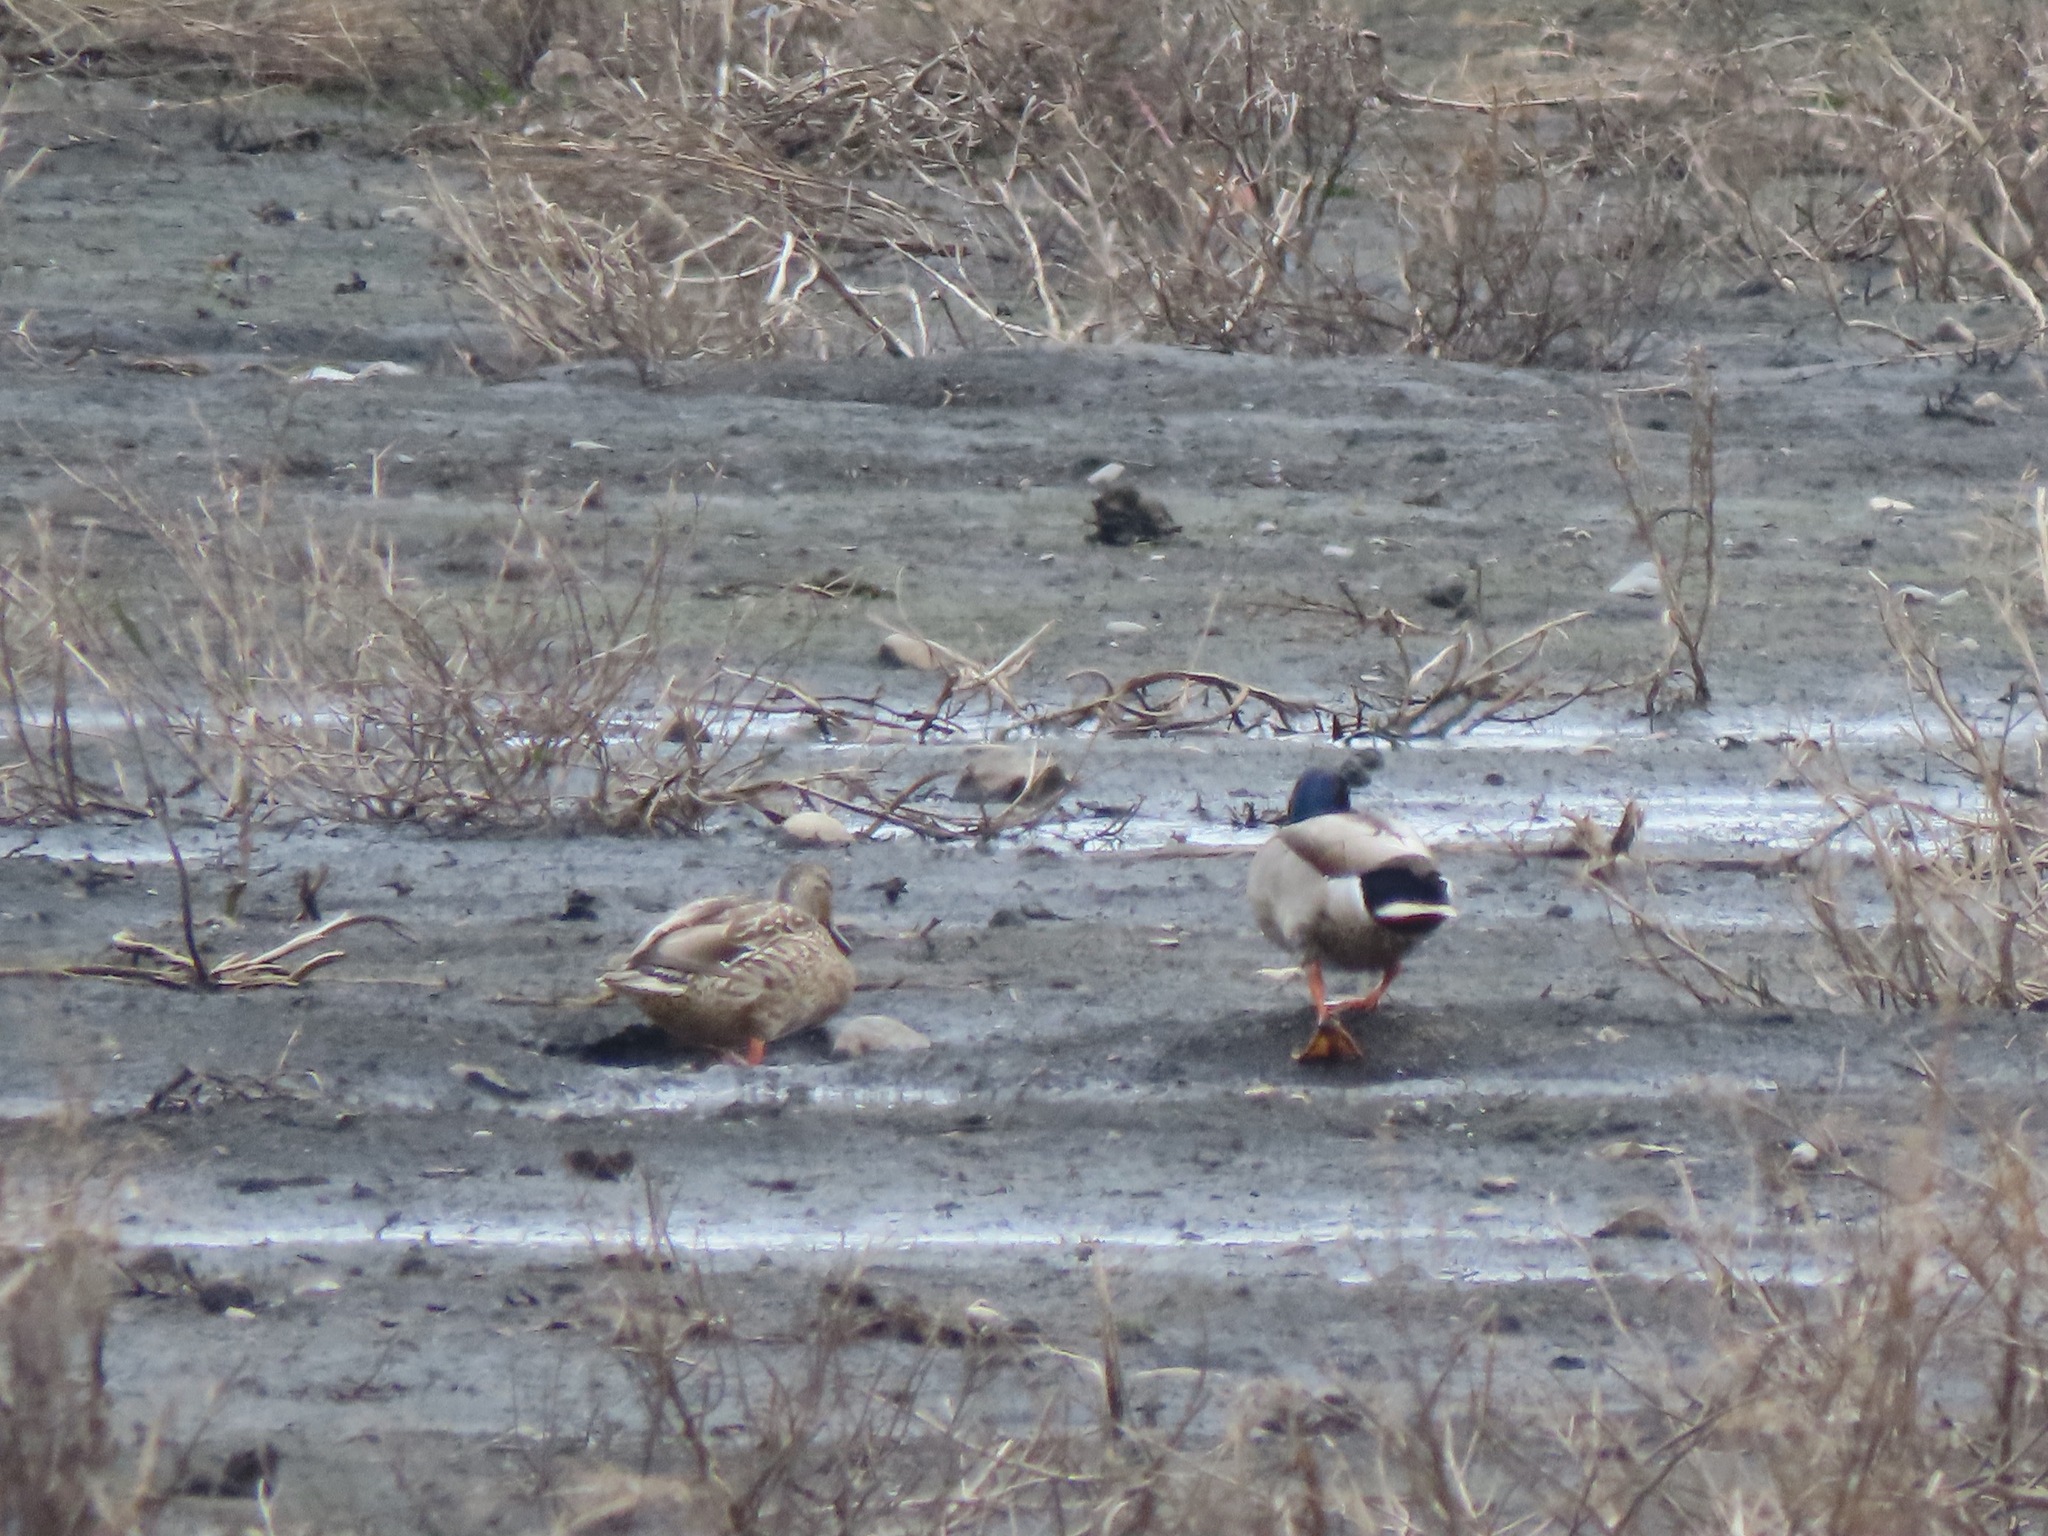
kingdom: Animalia
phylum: Chordata
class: Aves
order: Anseriformes
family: Anatidae
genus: Anas
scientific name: Anas platyrhynchos
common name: Mallard
